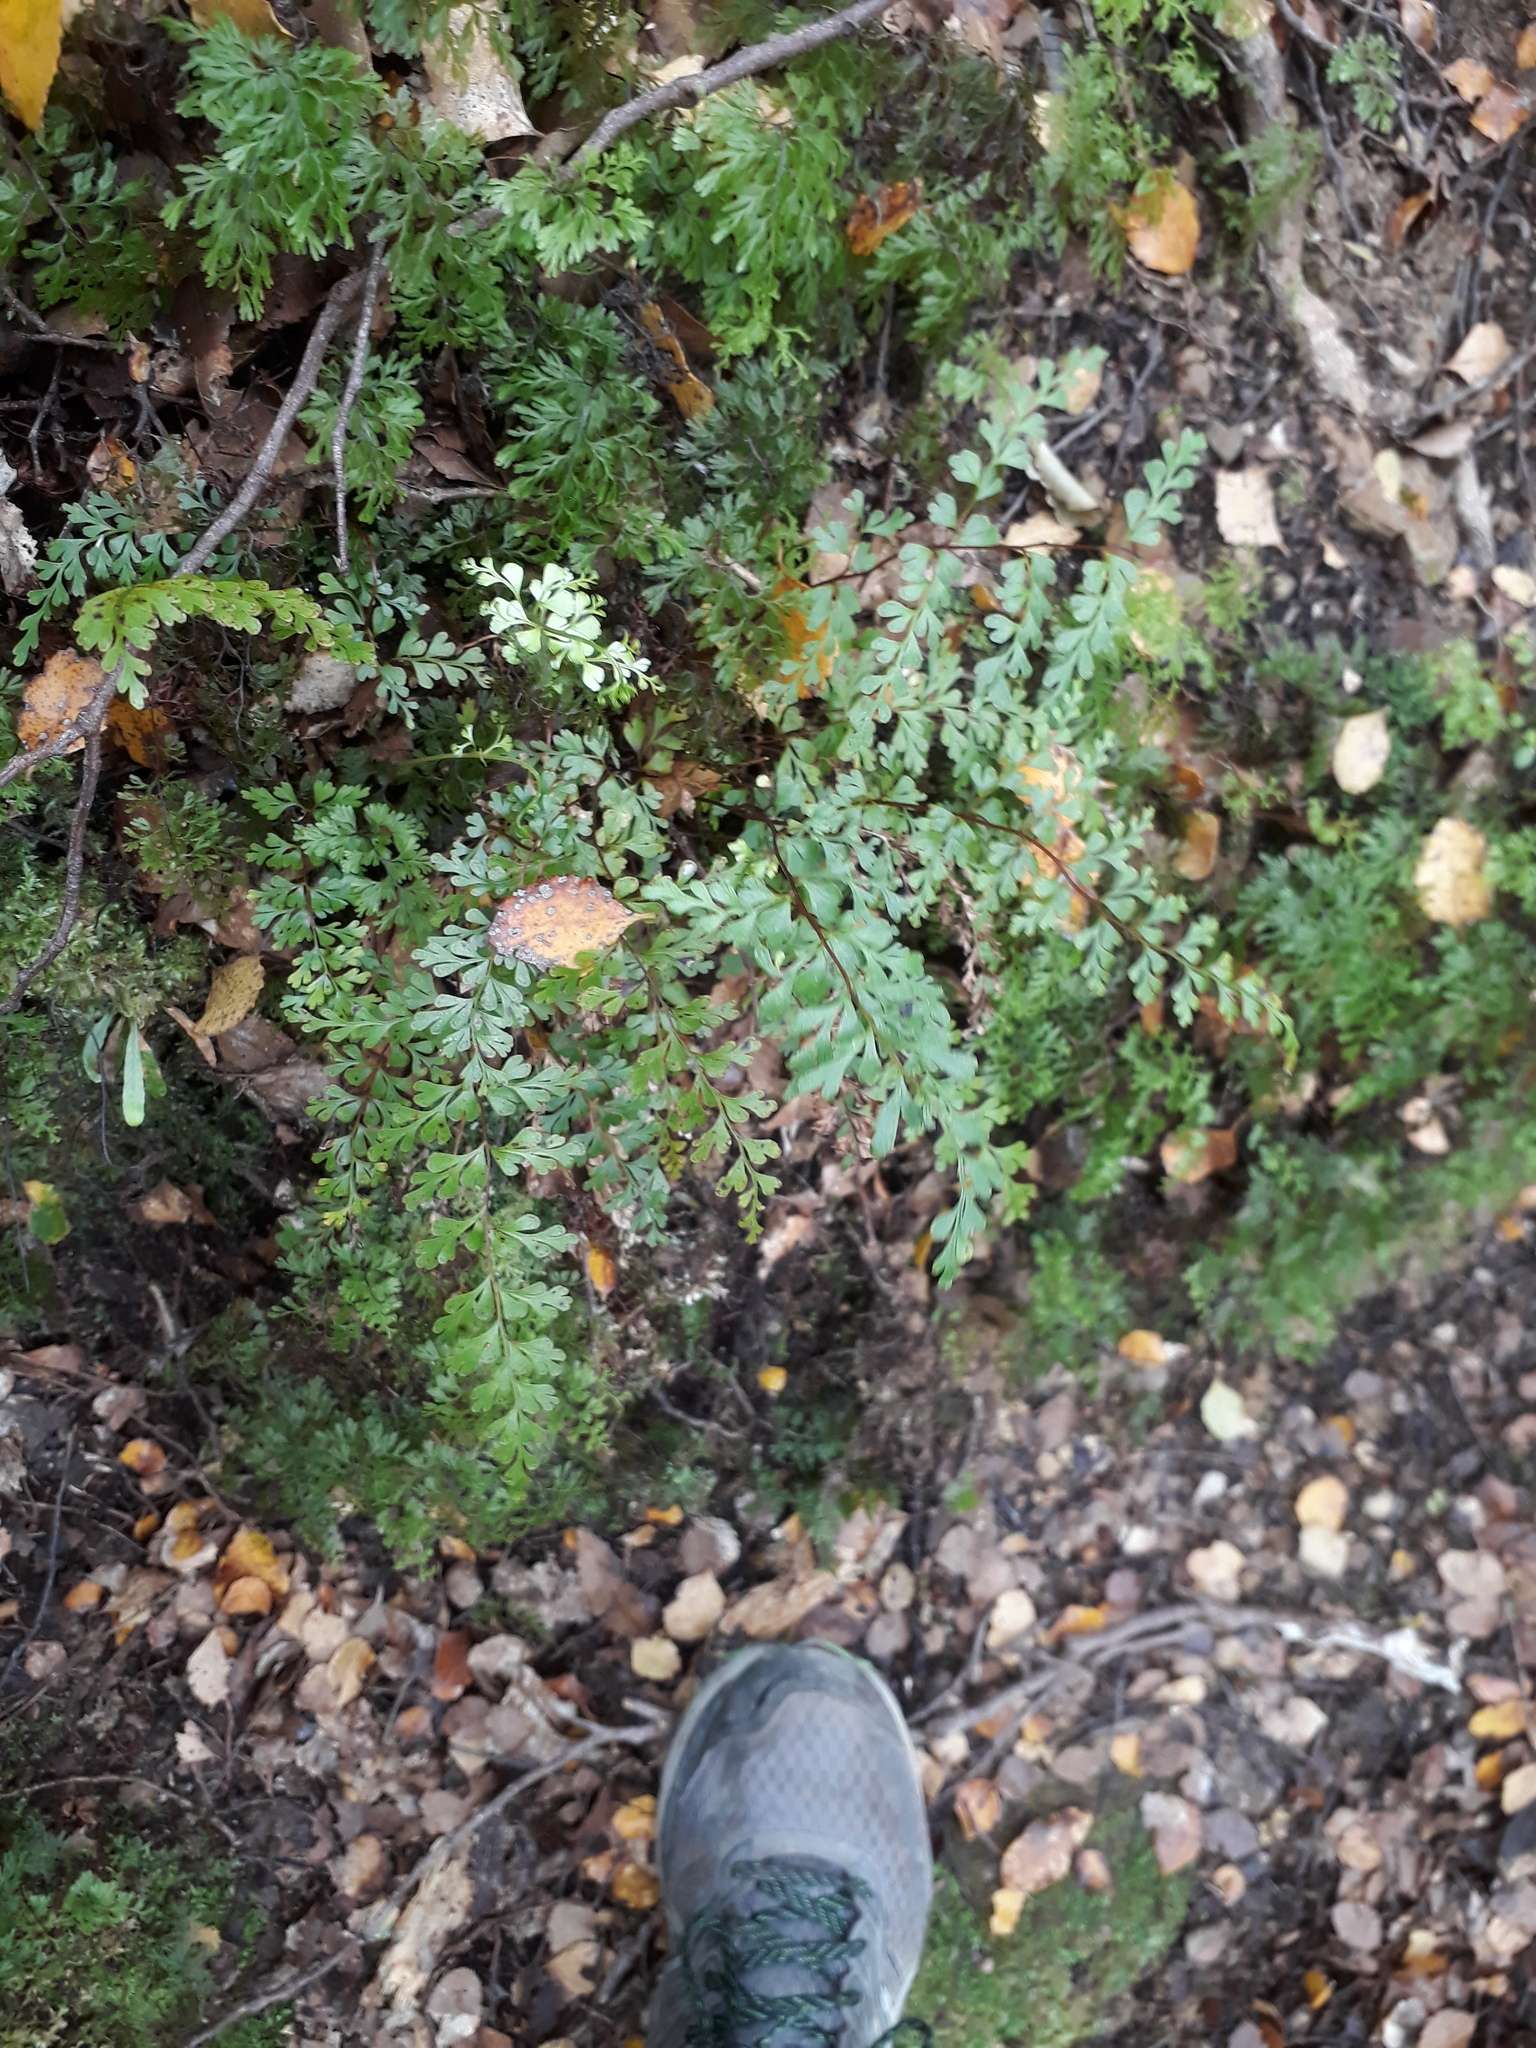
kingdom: Plantae
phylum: Tracheophyta
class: Polypodiopsida
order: Polypodiales
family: Lindsaeaceae
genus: Lindsaea
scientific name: Lindsaea trichomanoides
